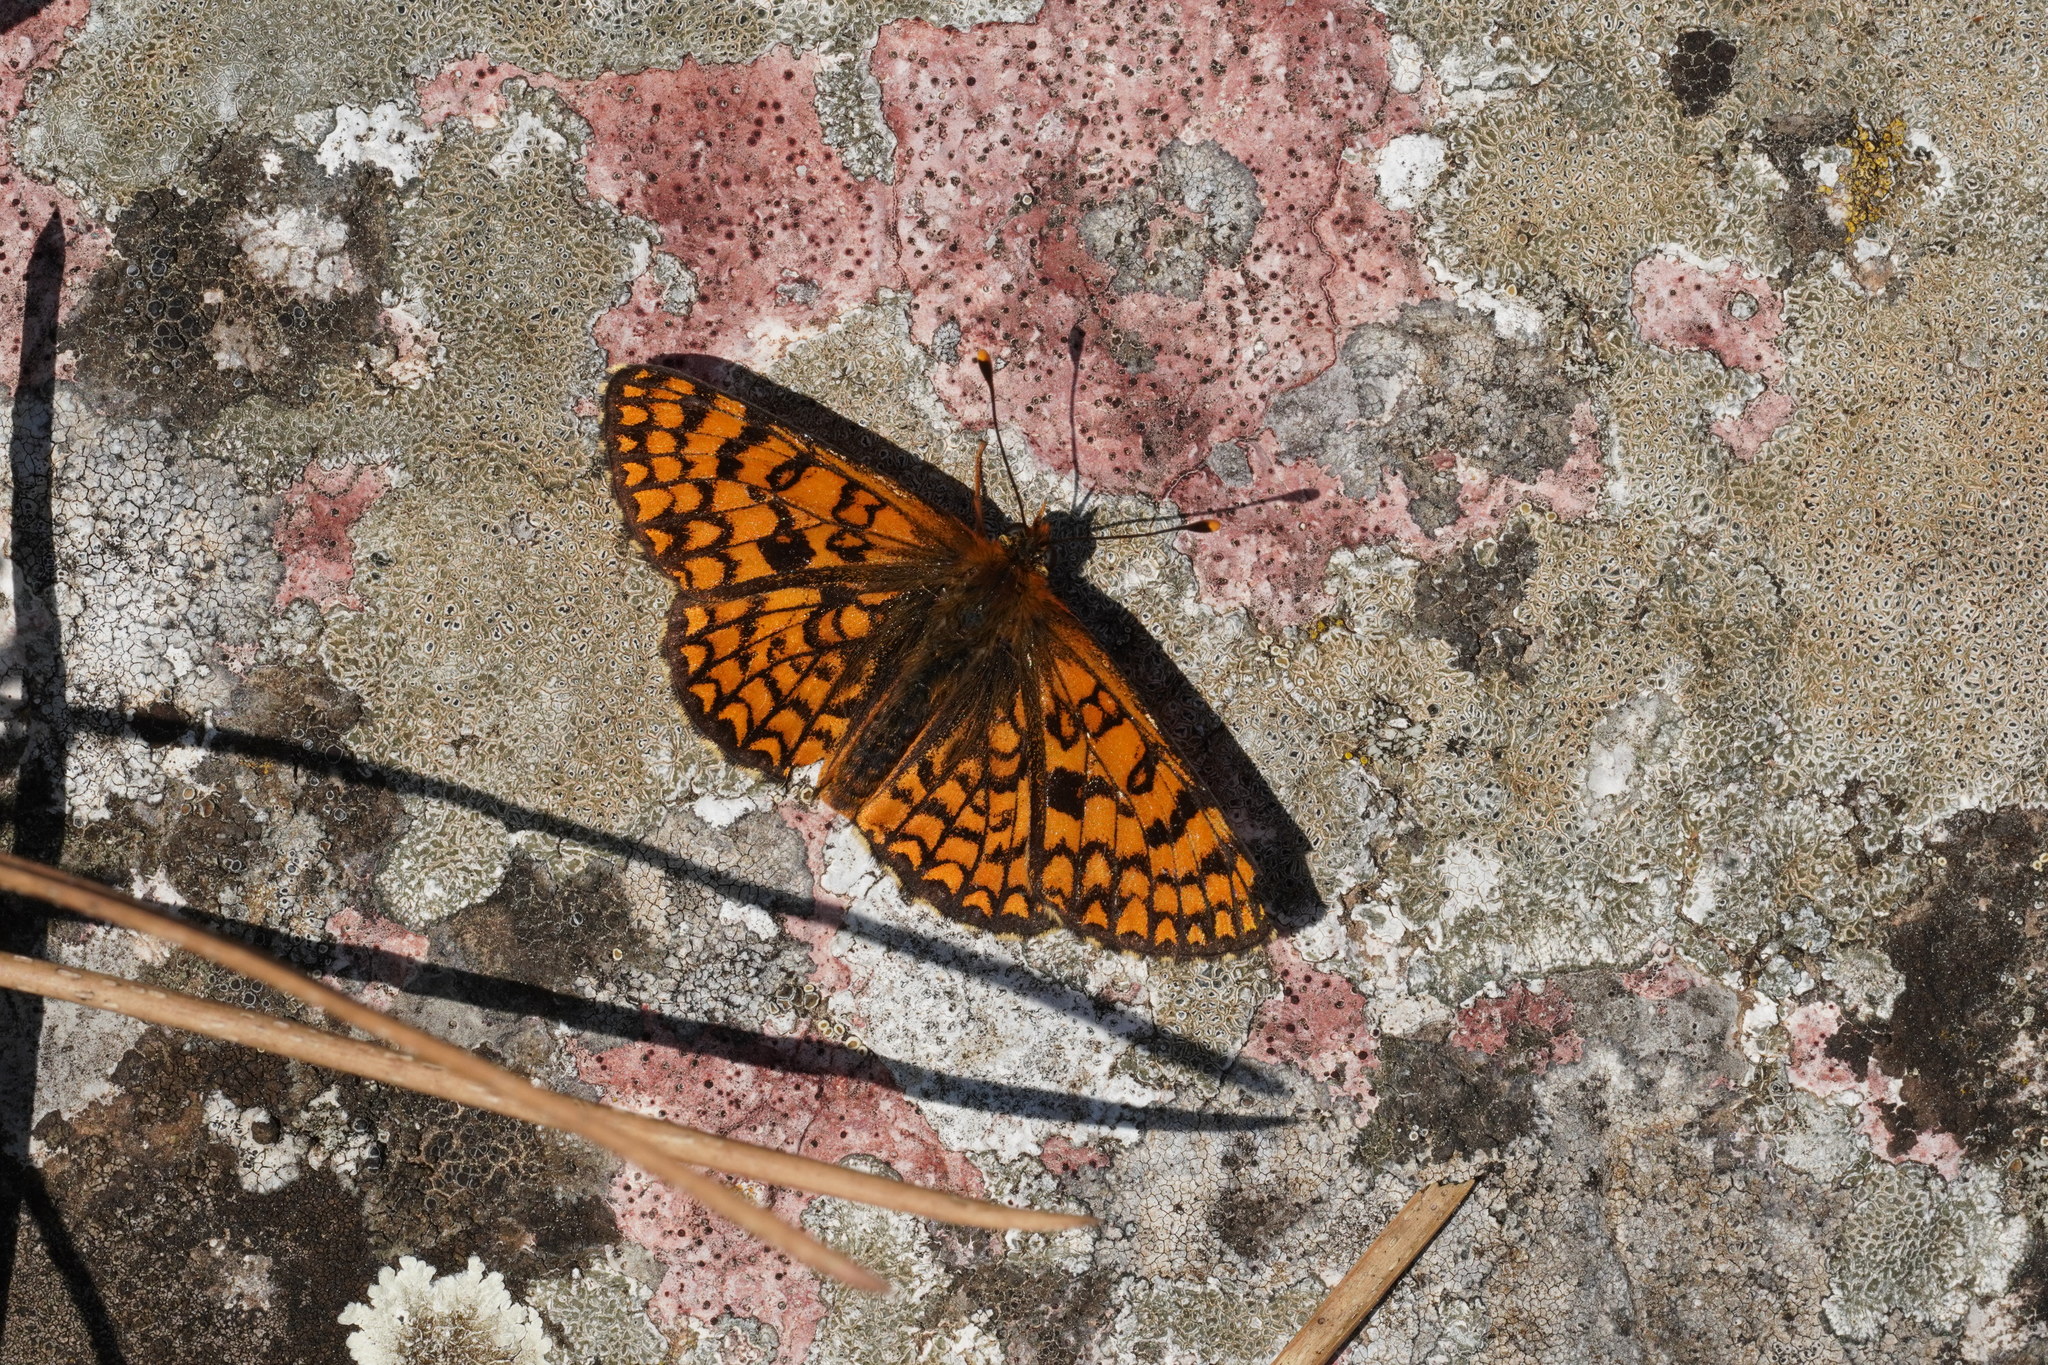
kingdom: Animalia
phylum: Arthropoda
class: Insecta
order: Lepidoptera
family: Nymphalidae
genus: Melitaea
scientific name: Melitaea deione
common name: Provençal fritillary
